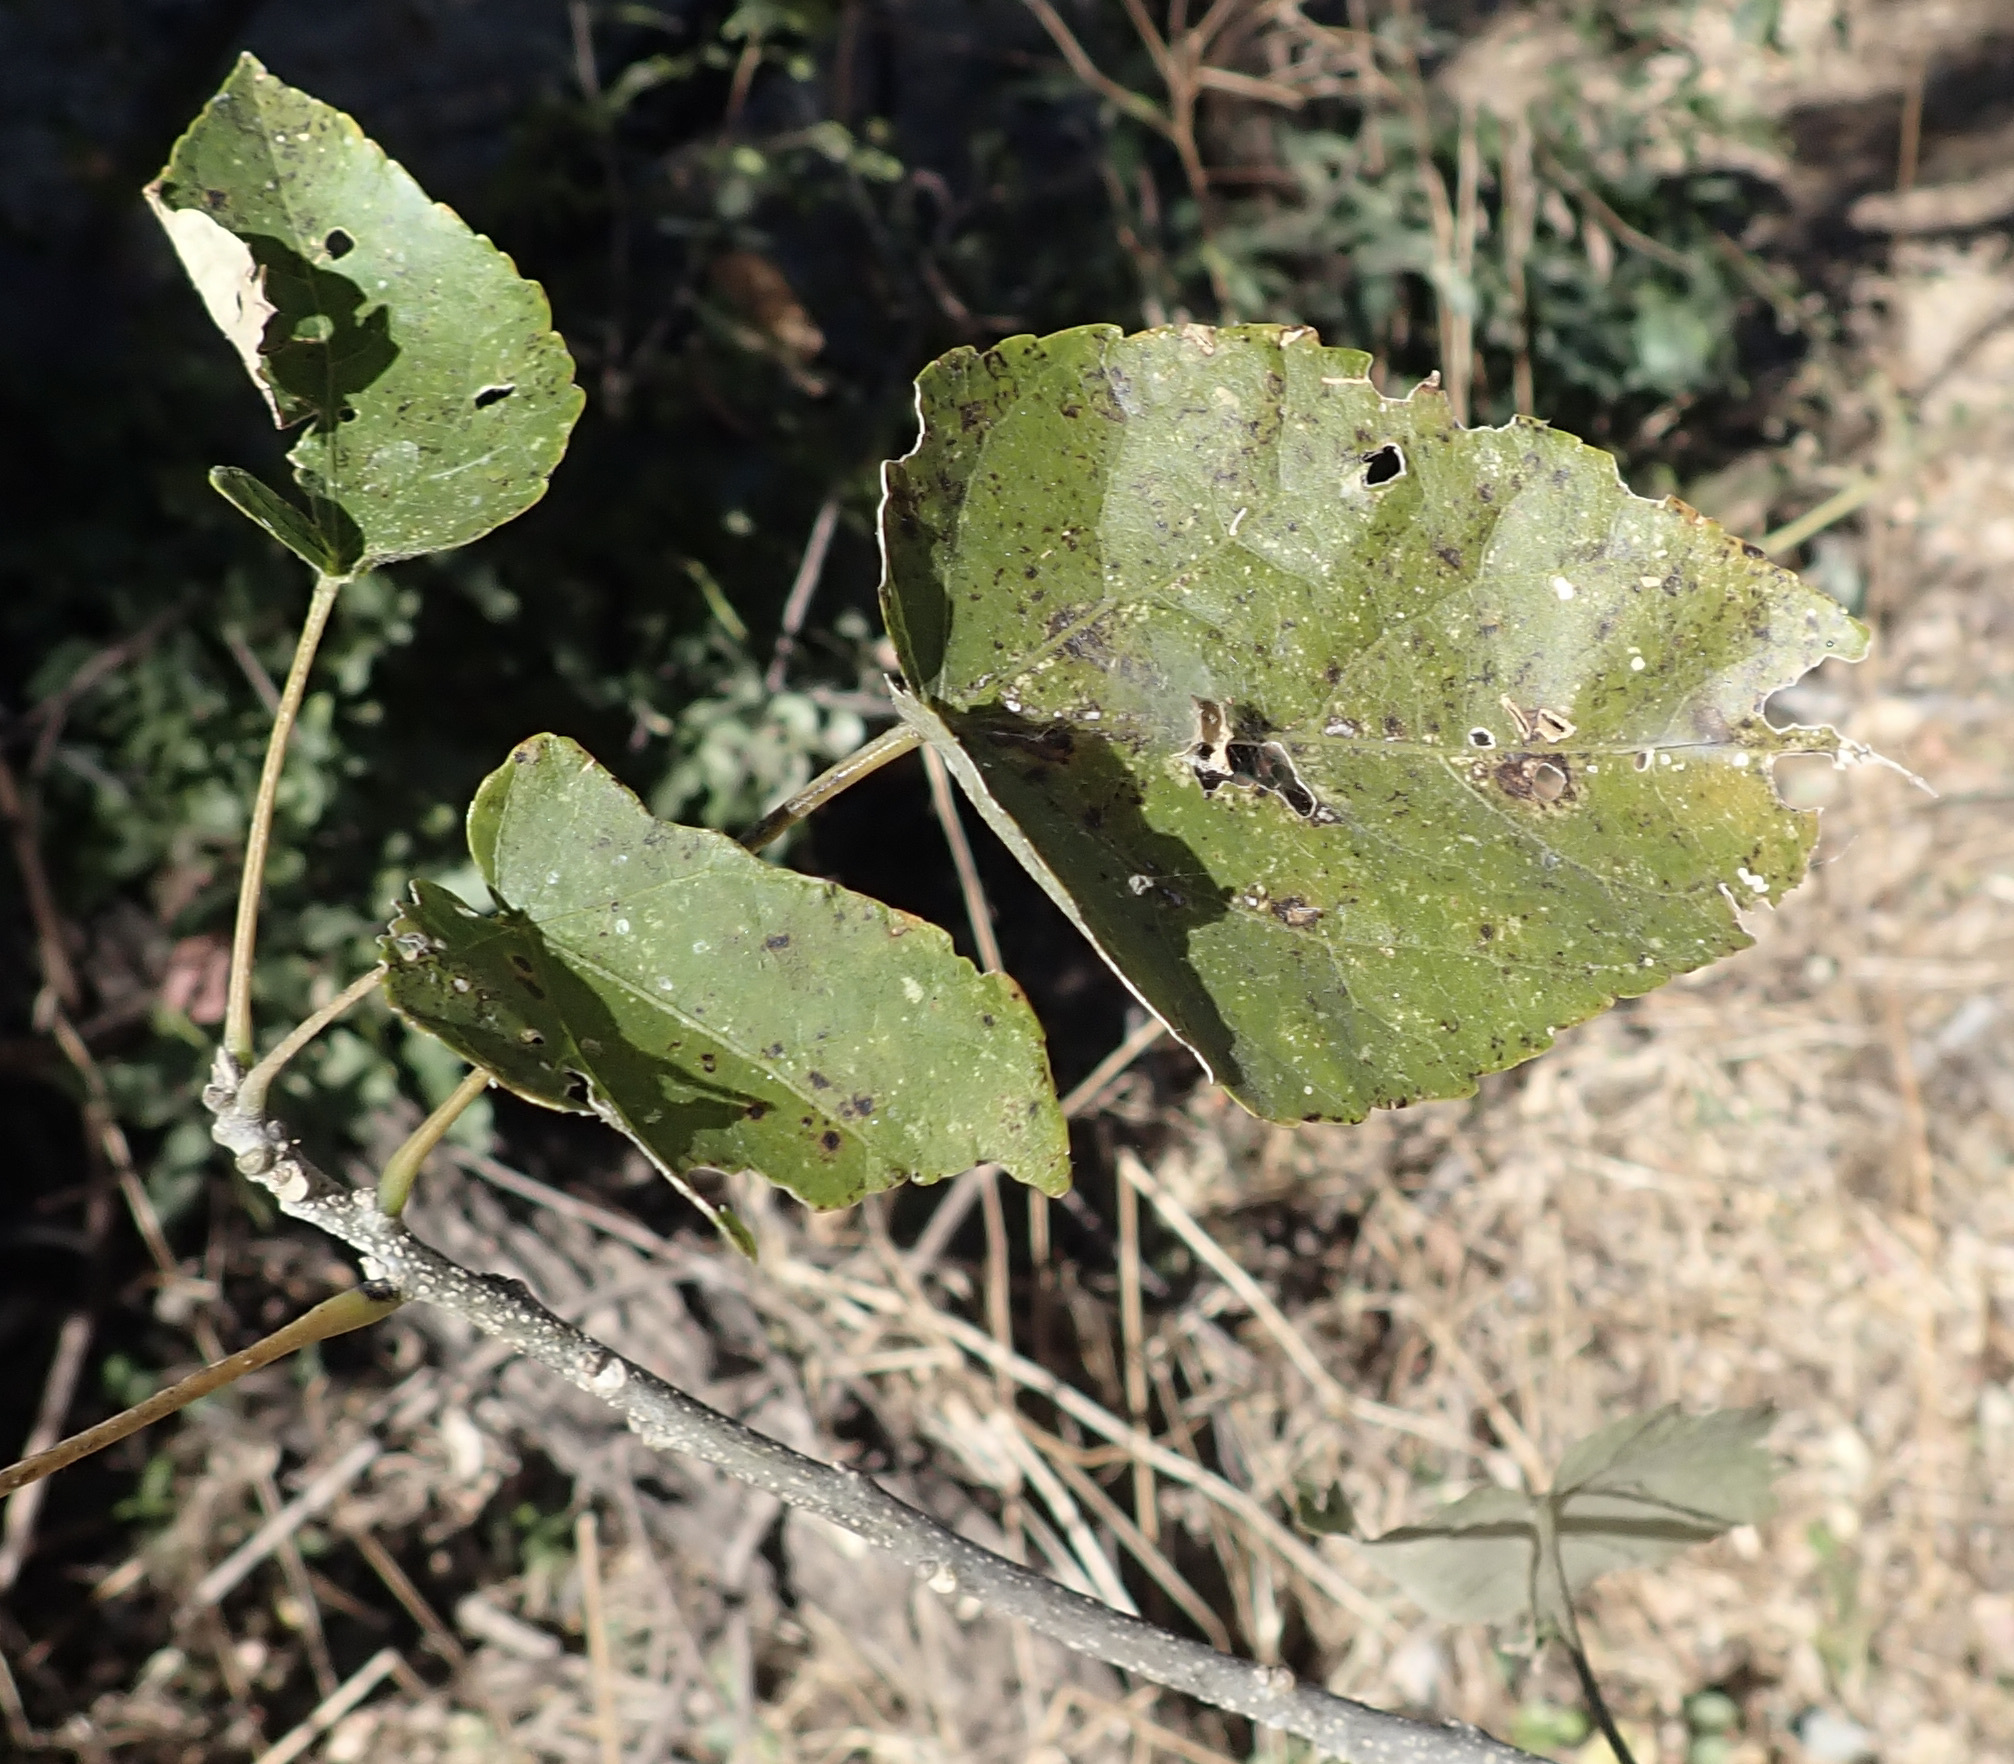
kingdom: Plantae
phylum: Tracheophyta
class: Magnoliopsida
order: Malpighiales
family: Euphorbiaceae
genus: Croton
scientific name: Croton megalobotrys
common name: Large fever berry
